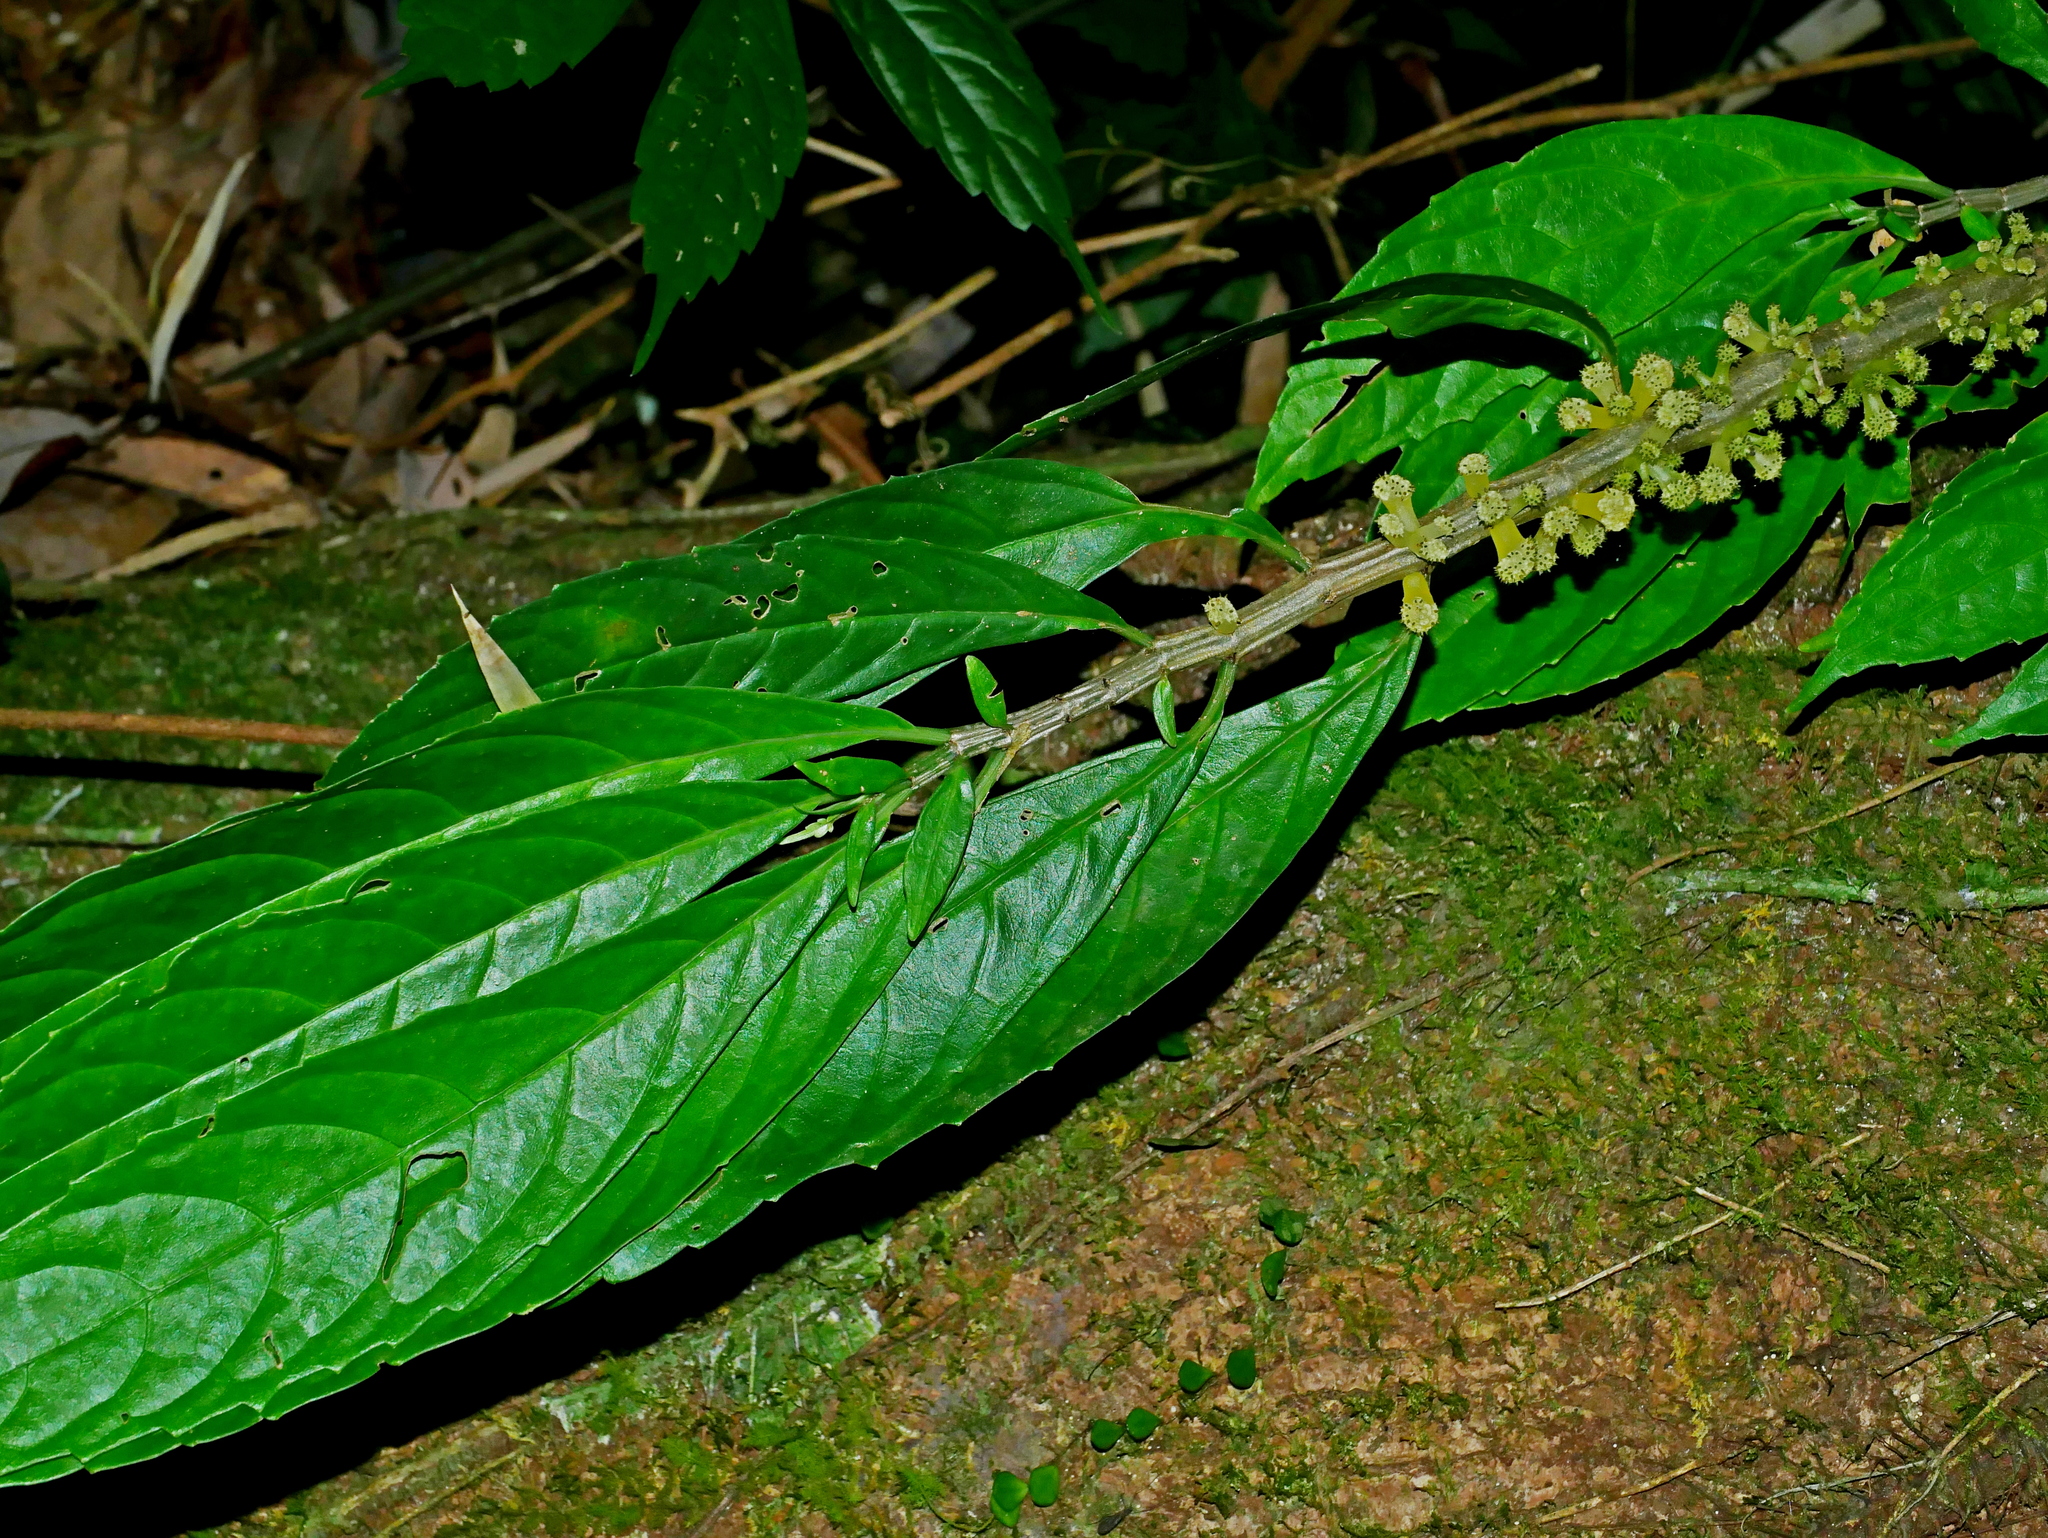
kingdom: Plantae
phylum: Tracheophyta
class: Magnoliopsida
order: Rosales
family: Urticaceae
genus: Procris
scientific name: Procris
